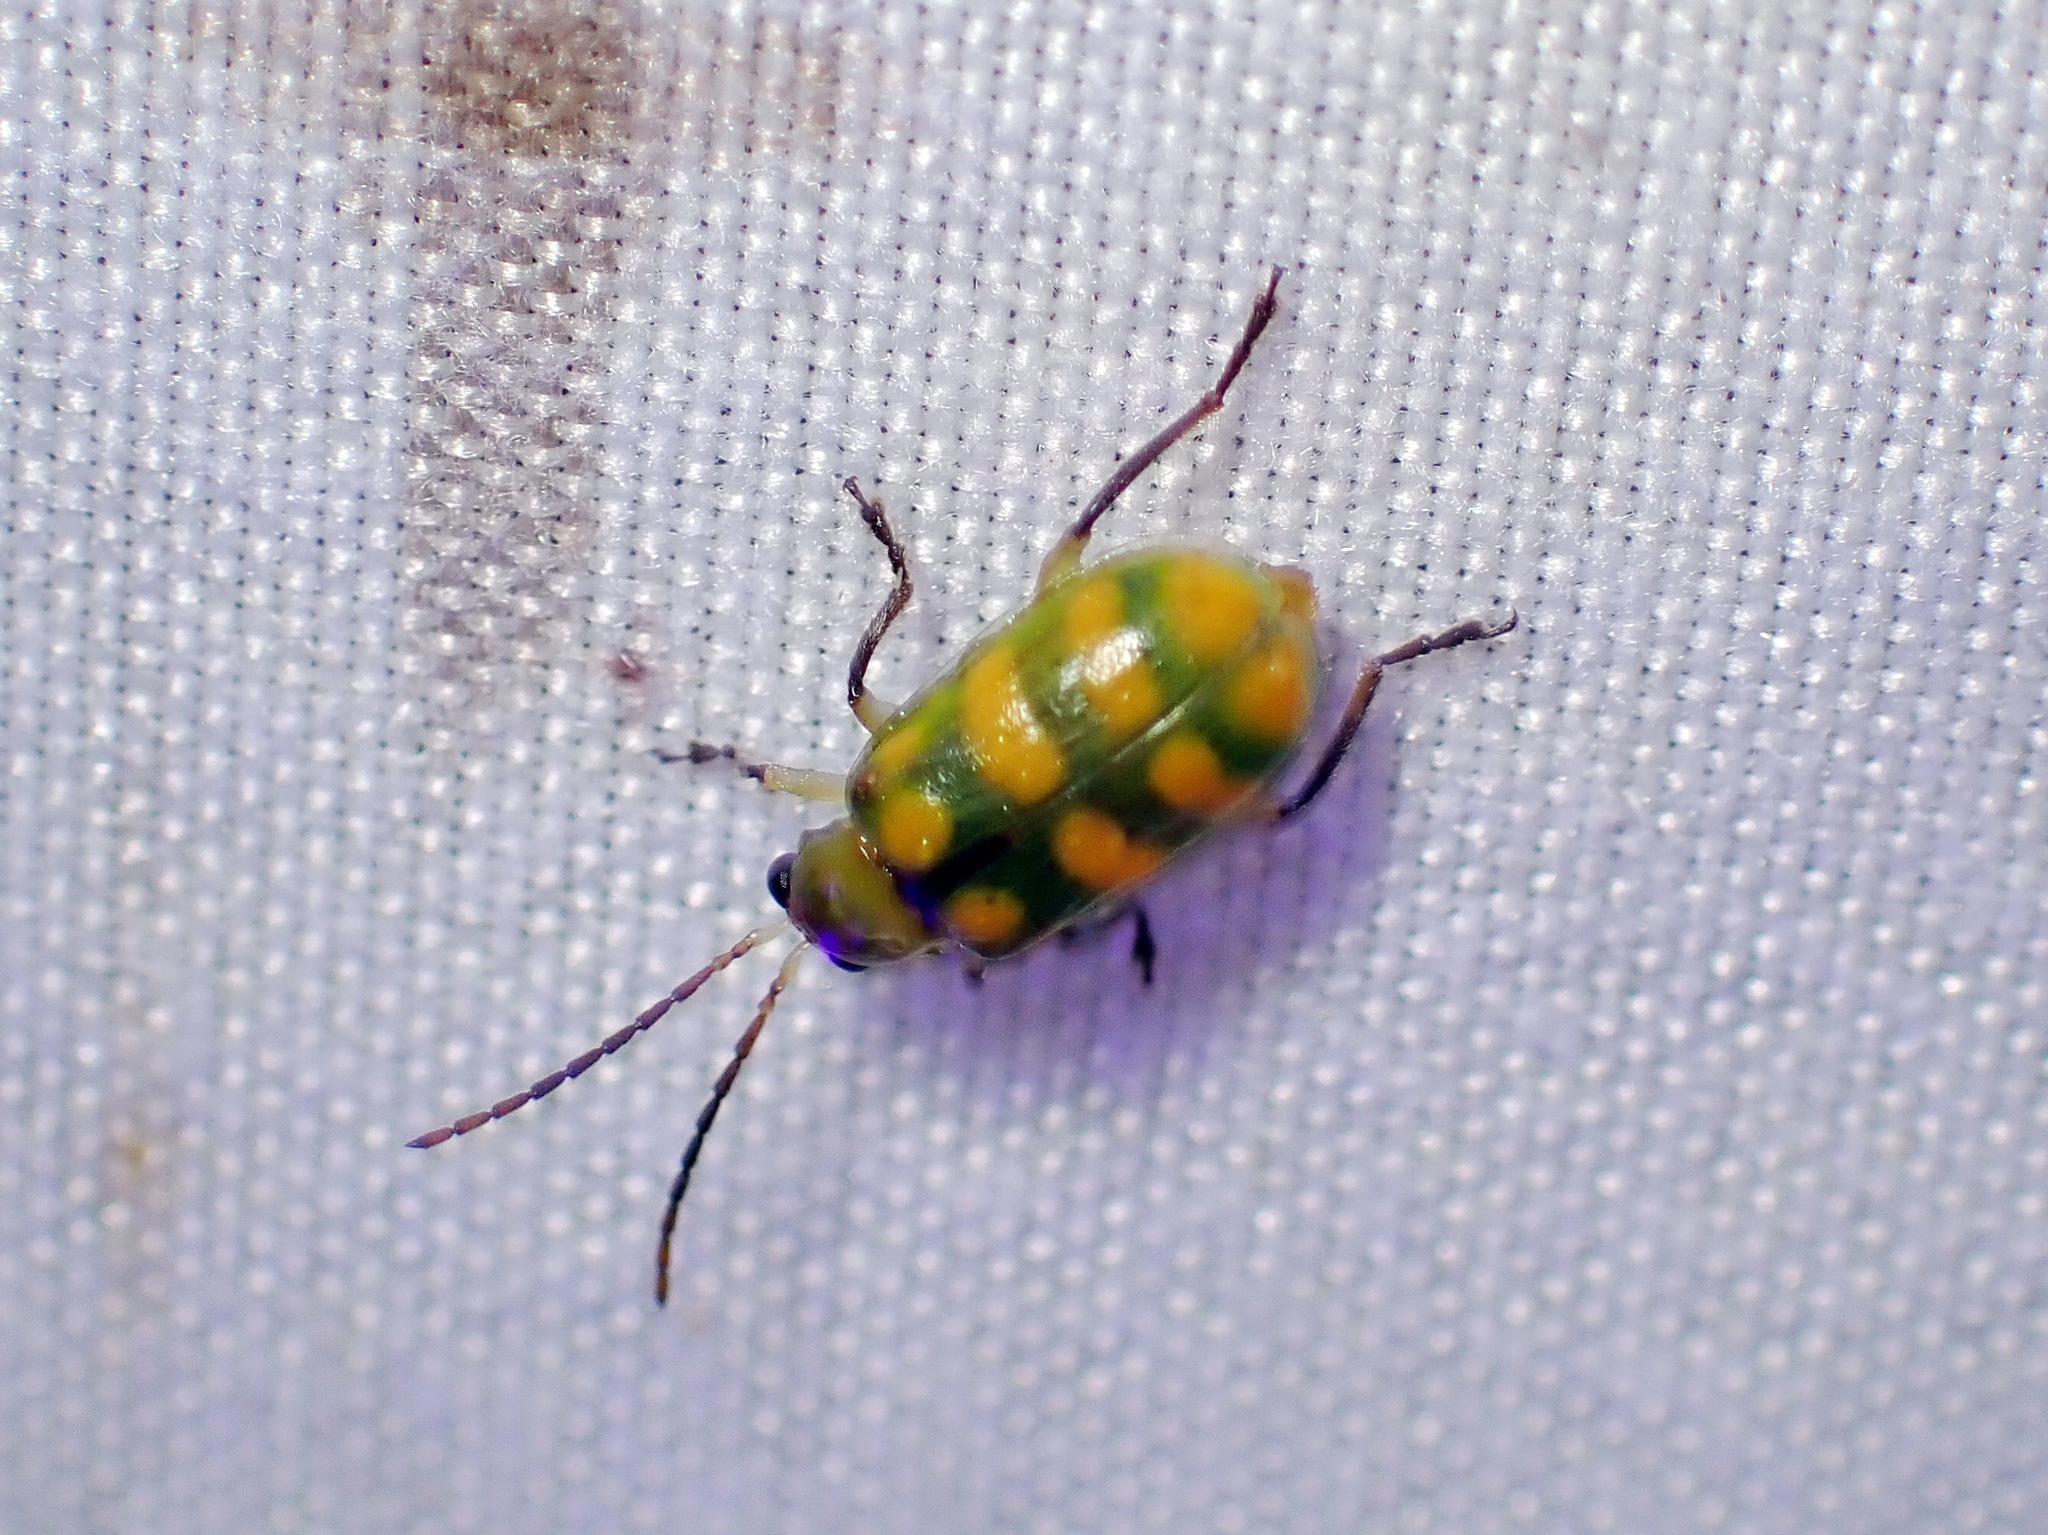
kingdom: Animalia
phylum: Arthropoda
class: Insecta
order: Coleoptera
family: Chrysomelidae
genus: Diabrotica
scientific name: Diabrotica balteata
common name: Leaf beetle
